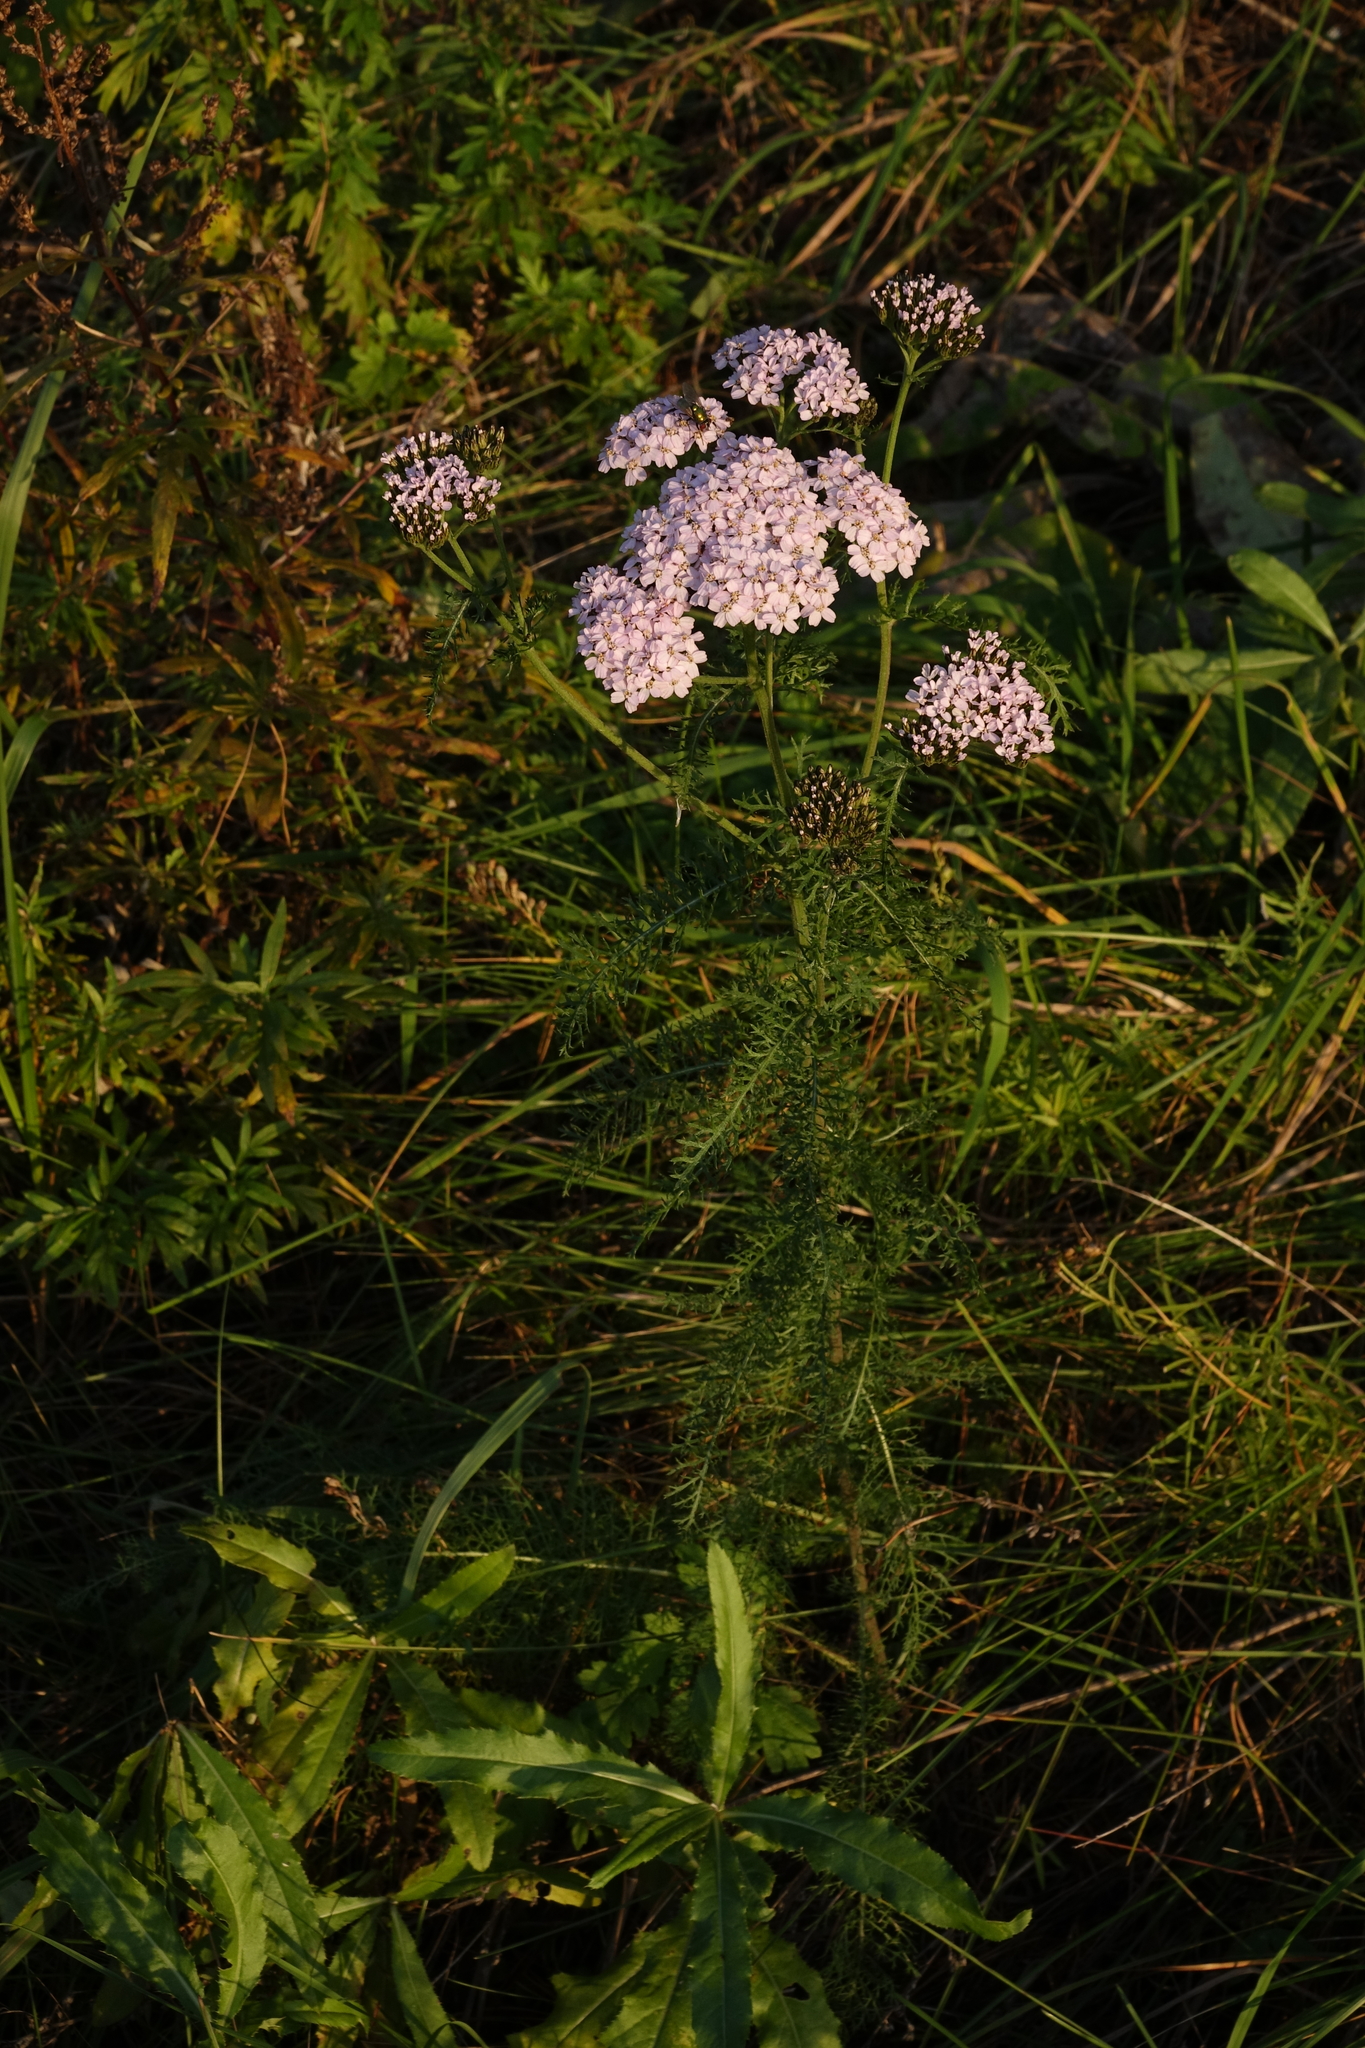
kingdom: Plantae
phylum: Tracheophyta
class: Magnoliopsida
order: Asterales
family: Asteraceae
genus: Achillea
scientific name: Achillea millefolium
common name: Yarrow
